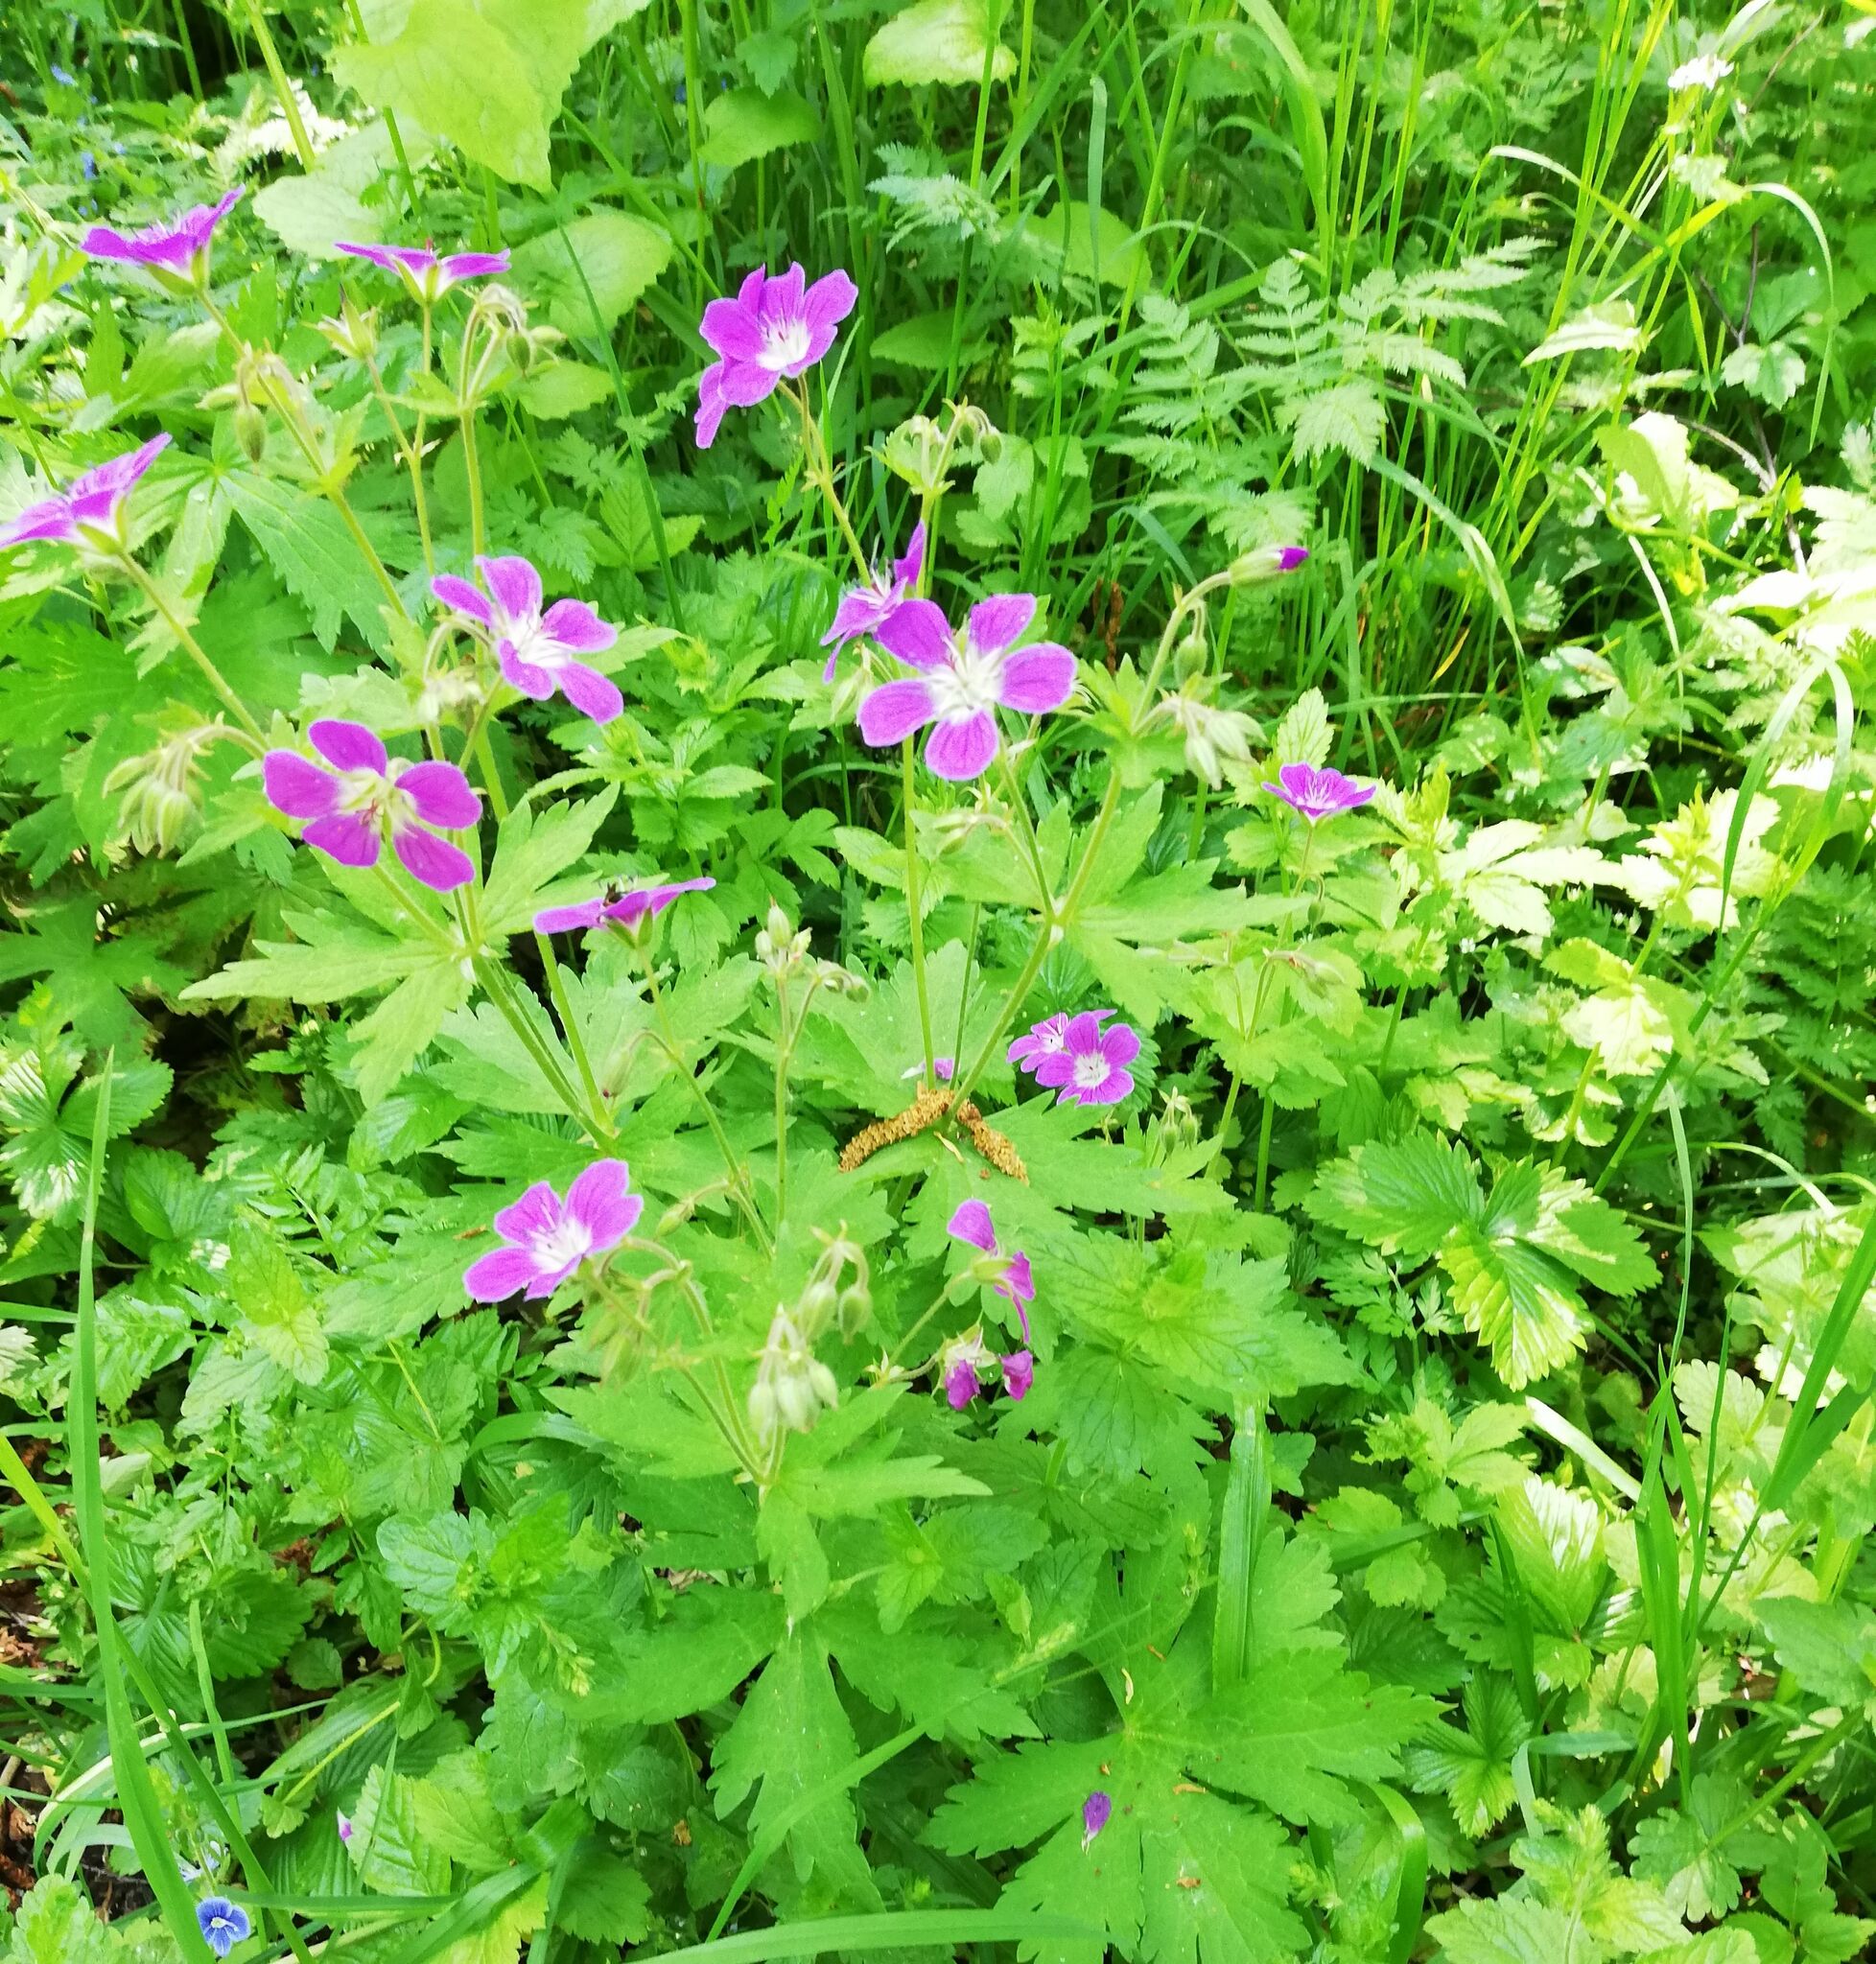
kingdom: Plantae
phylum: Tracheophyta
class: Magnoliopsida
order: Geraniales
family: Geraniaceae
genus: Geranium
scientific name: Geranium sylvaticum
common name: Wood crane's-bill
